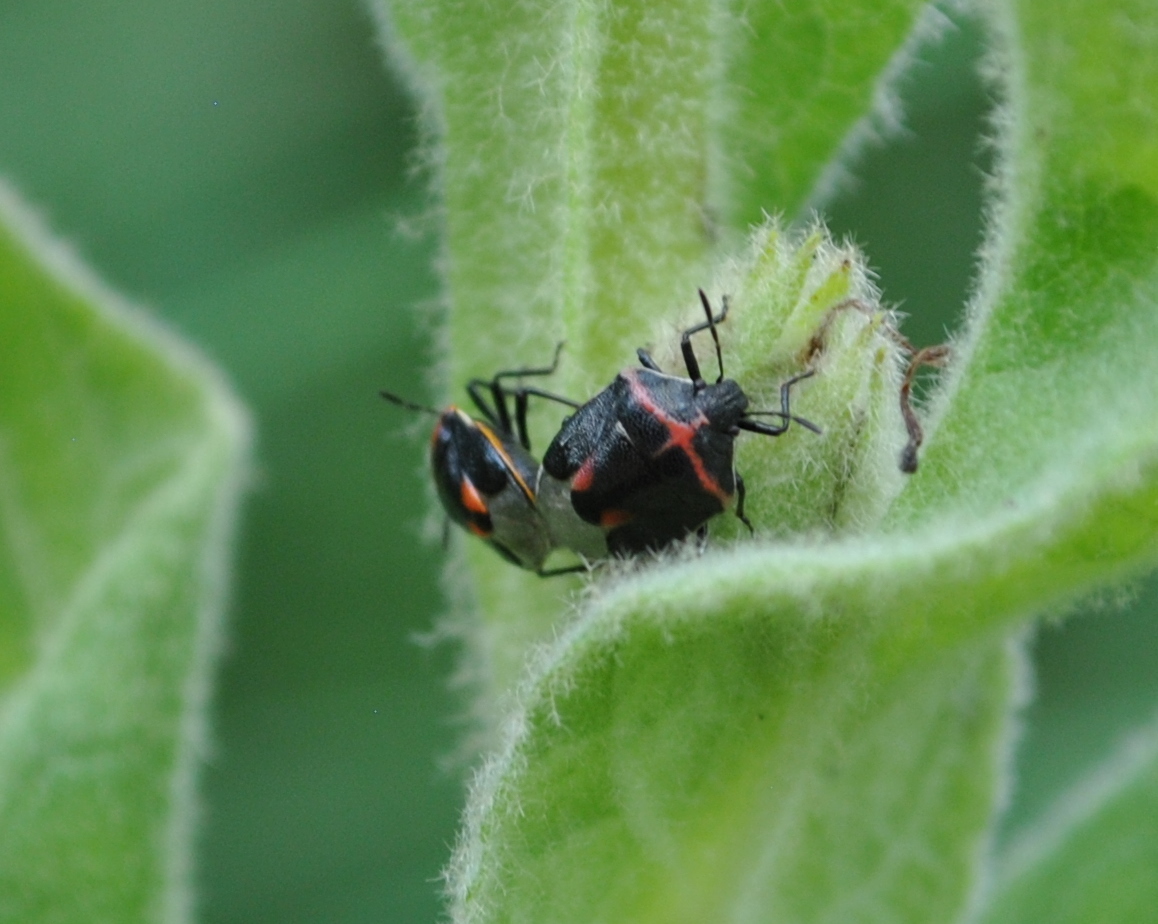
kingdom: Animalia
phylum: Arthropoda
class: Insecta
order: Hemiptera
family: Pentatomidae
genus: Cosmopepla
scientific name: Cosmopepla lintneriana
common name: Twice-stabbed stink bug
